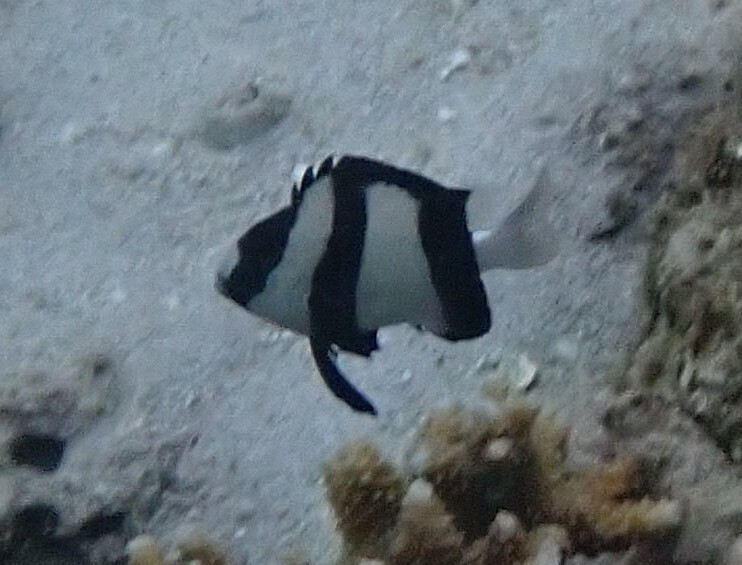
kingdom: Animalia
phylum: Chordata
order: Perciformes
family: Pomacentridae
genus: Dascyllus
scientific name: Dascyllus aruanus
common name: Humbug dascyllus
